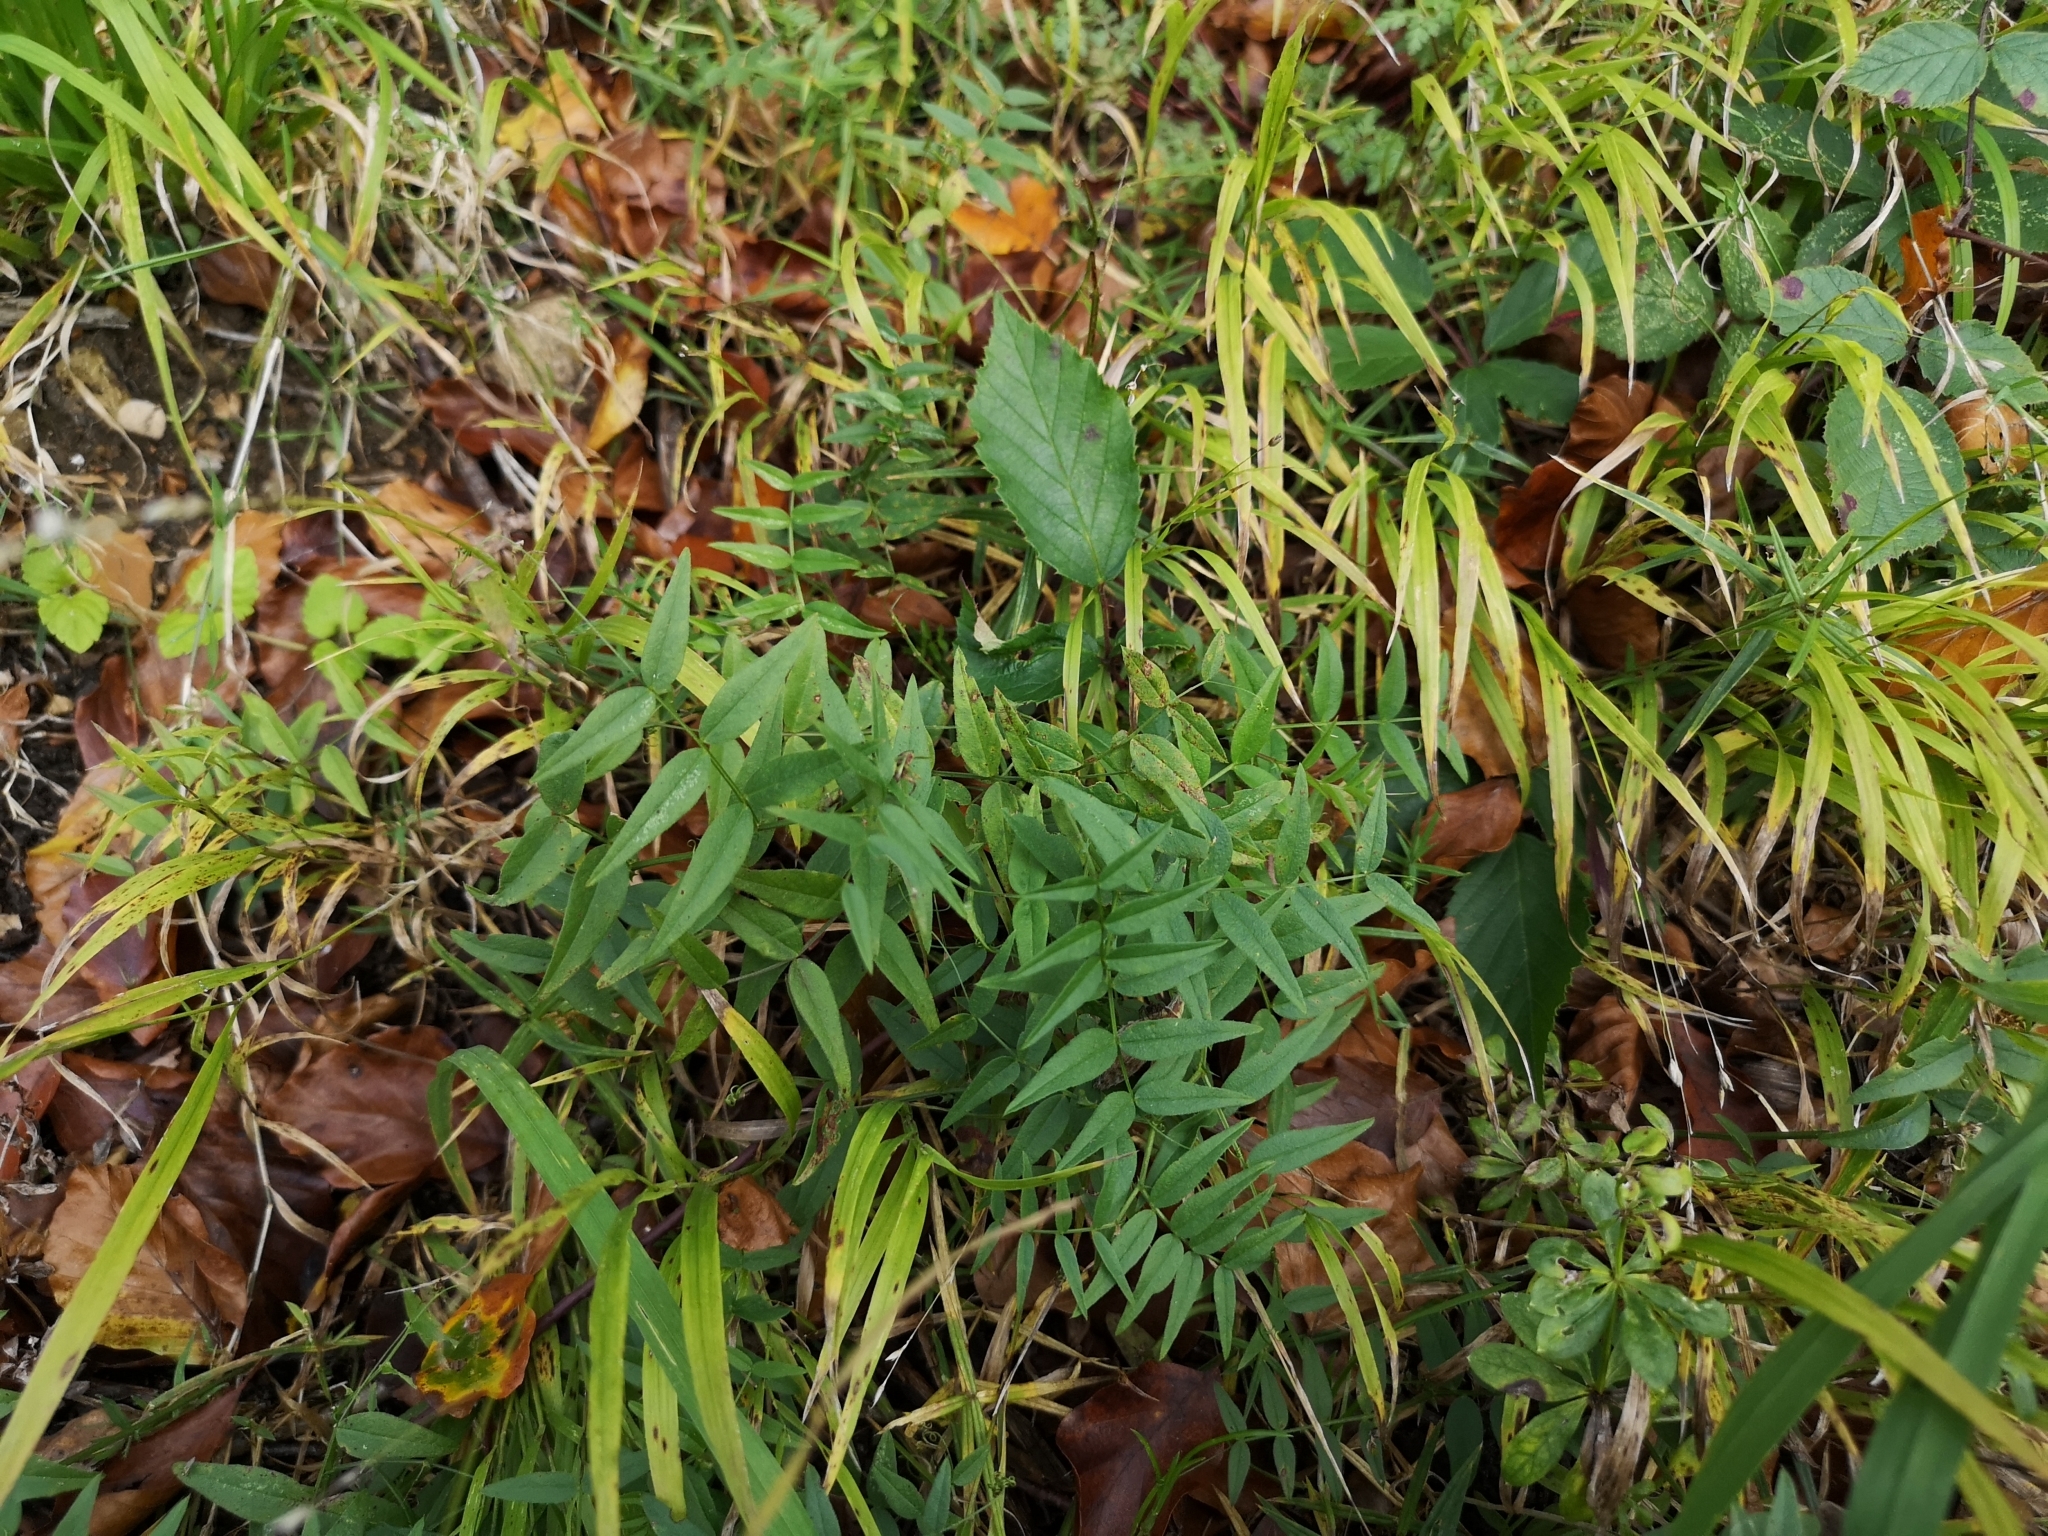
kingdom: Plantae
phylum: Tracheophyta
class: Magnoliopsida
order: Fabales
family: Fabaceae
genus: Vicia
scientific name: Vicia sepium
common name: Bush vetch
